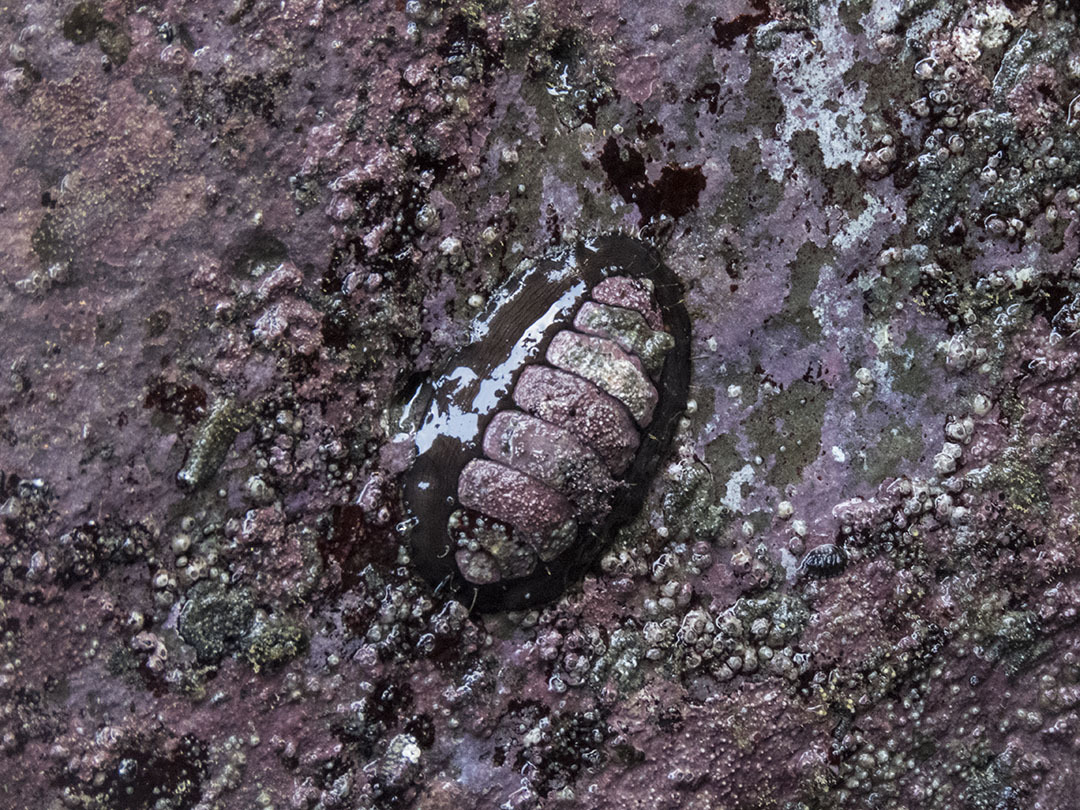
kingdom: Animalia
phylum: Mollusca
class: Polyplacophora
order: Chitonida
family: Mopaliidae
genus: Plaxiphora
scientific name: Plaxiphora biramosa
